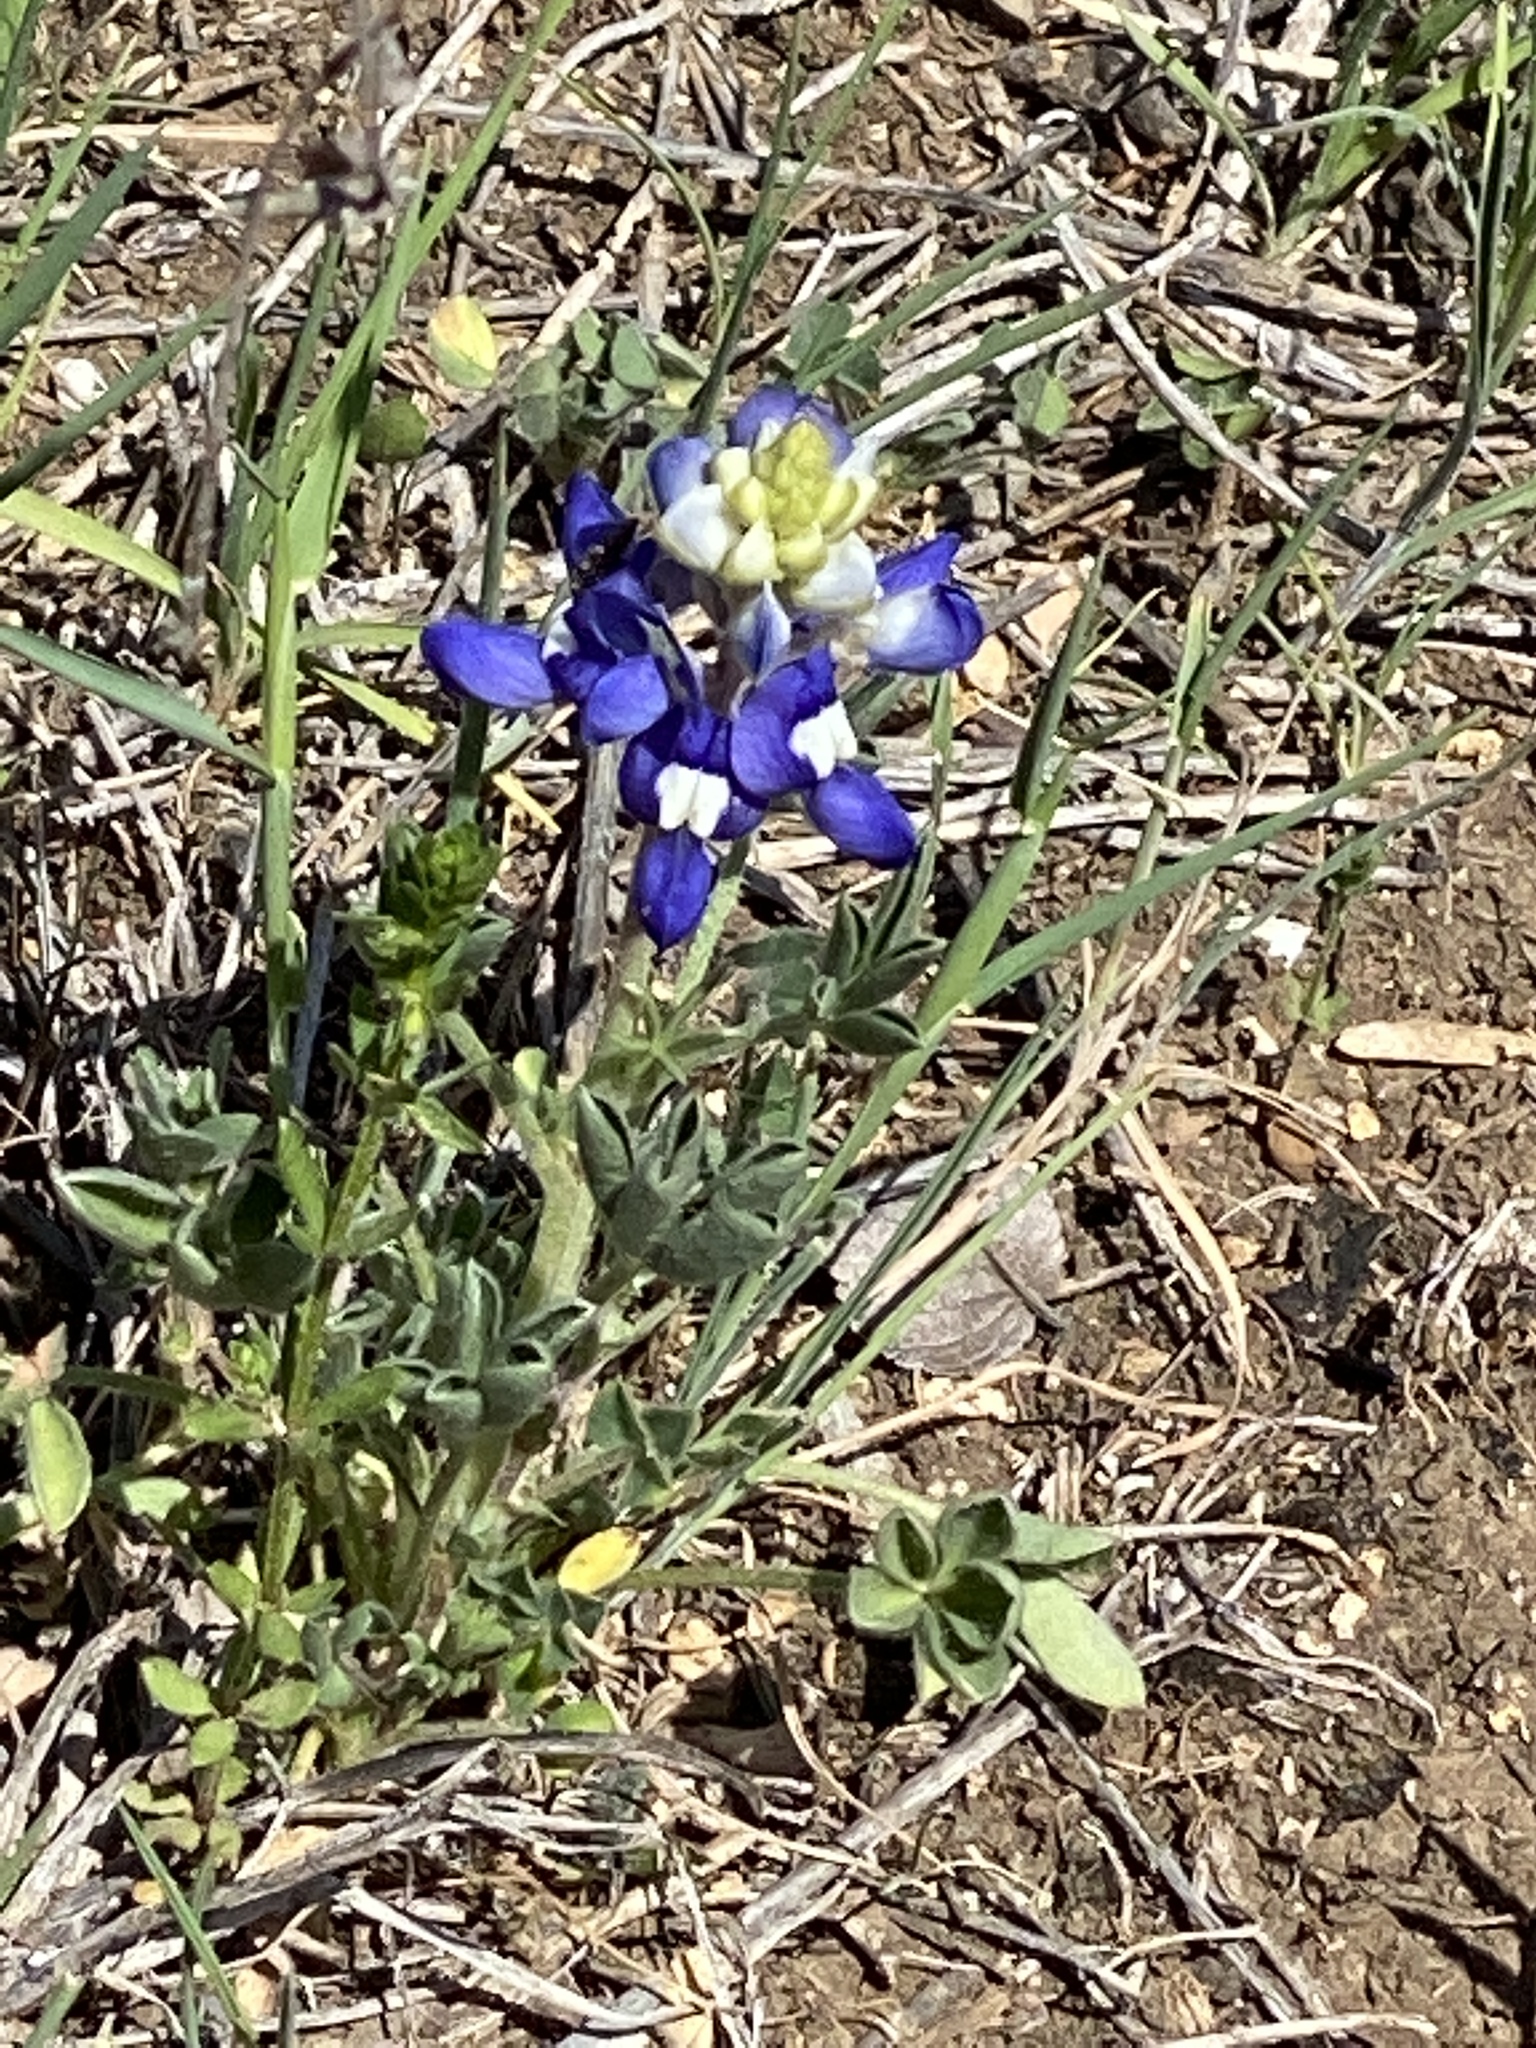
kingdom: Plantae
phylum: Tracheophyta
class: Magnoliopsida
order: Fabales
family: Fabaceae
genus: Lupinus
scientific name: Lupinus texensis
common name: Texas bluebonnet
